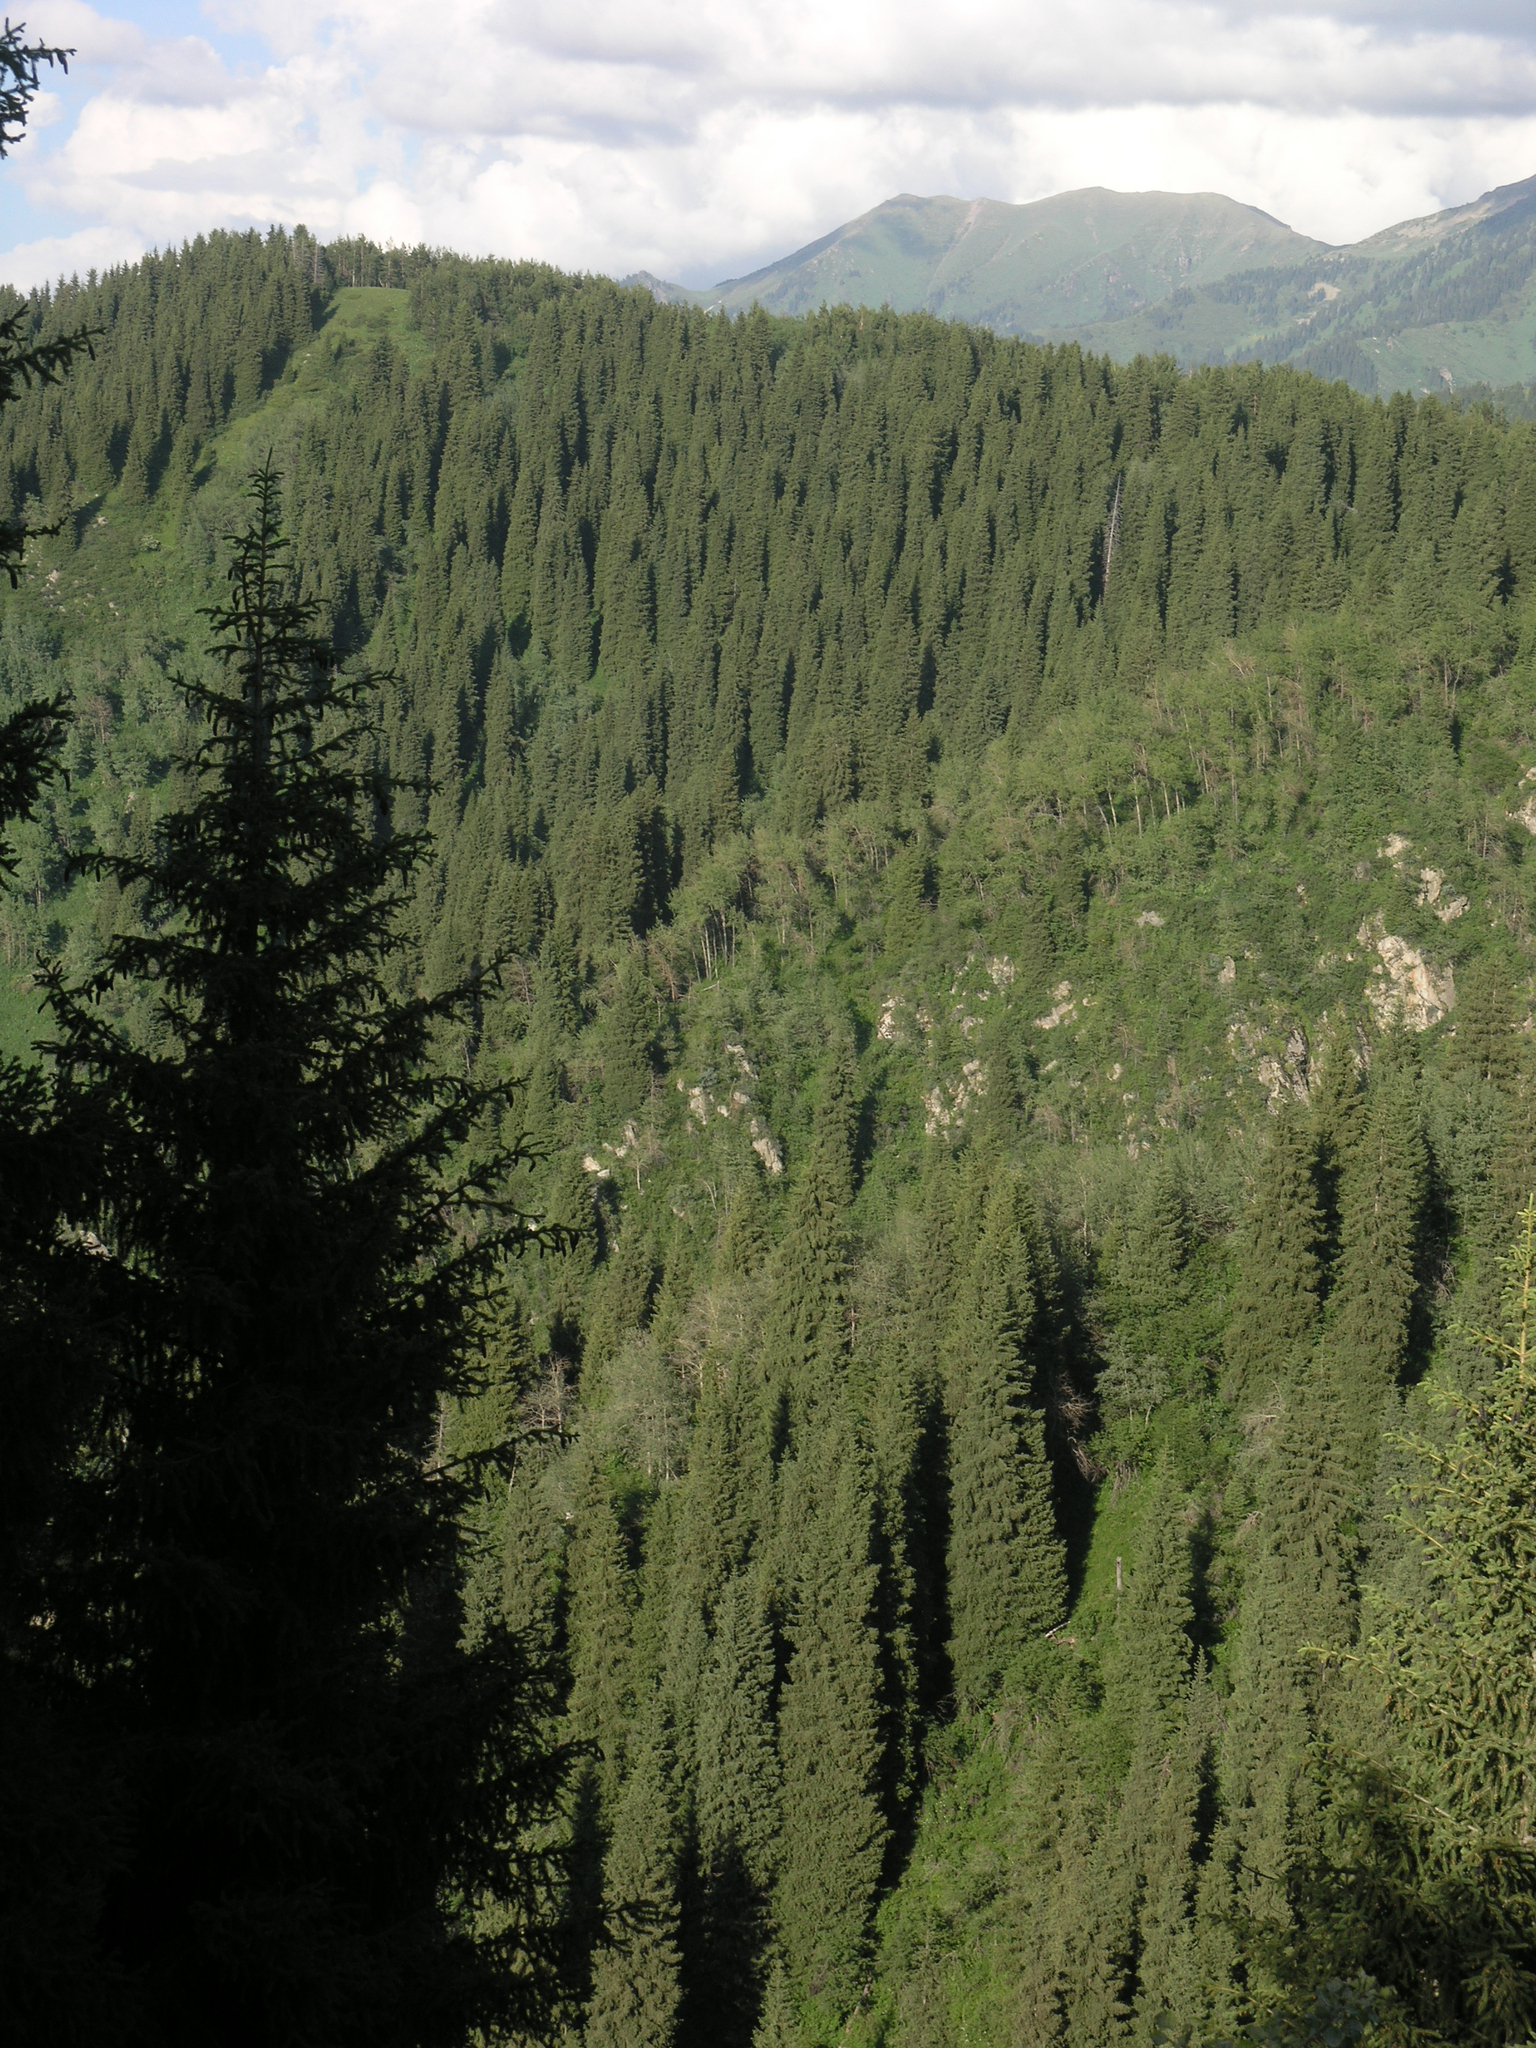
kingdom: Plantae
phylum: Tracheophyta
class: Pinopsida
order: Pinales
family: Pinaceae
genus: Picea
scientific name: Picea schrenkiana
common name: Asian spruce
